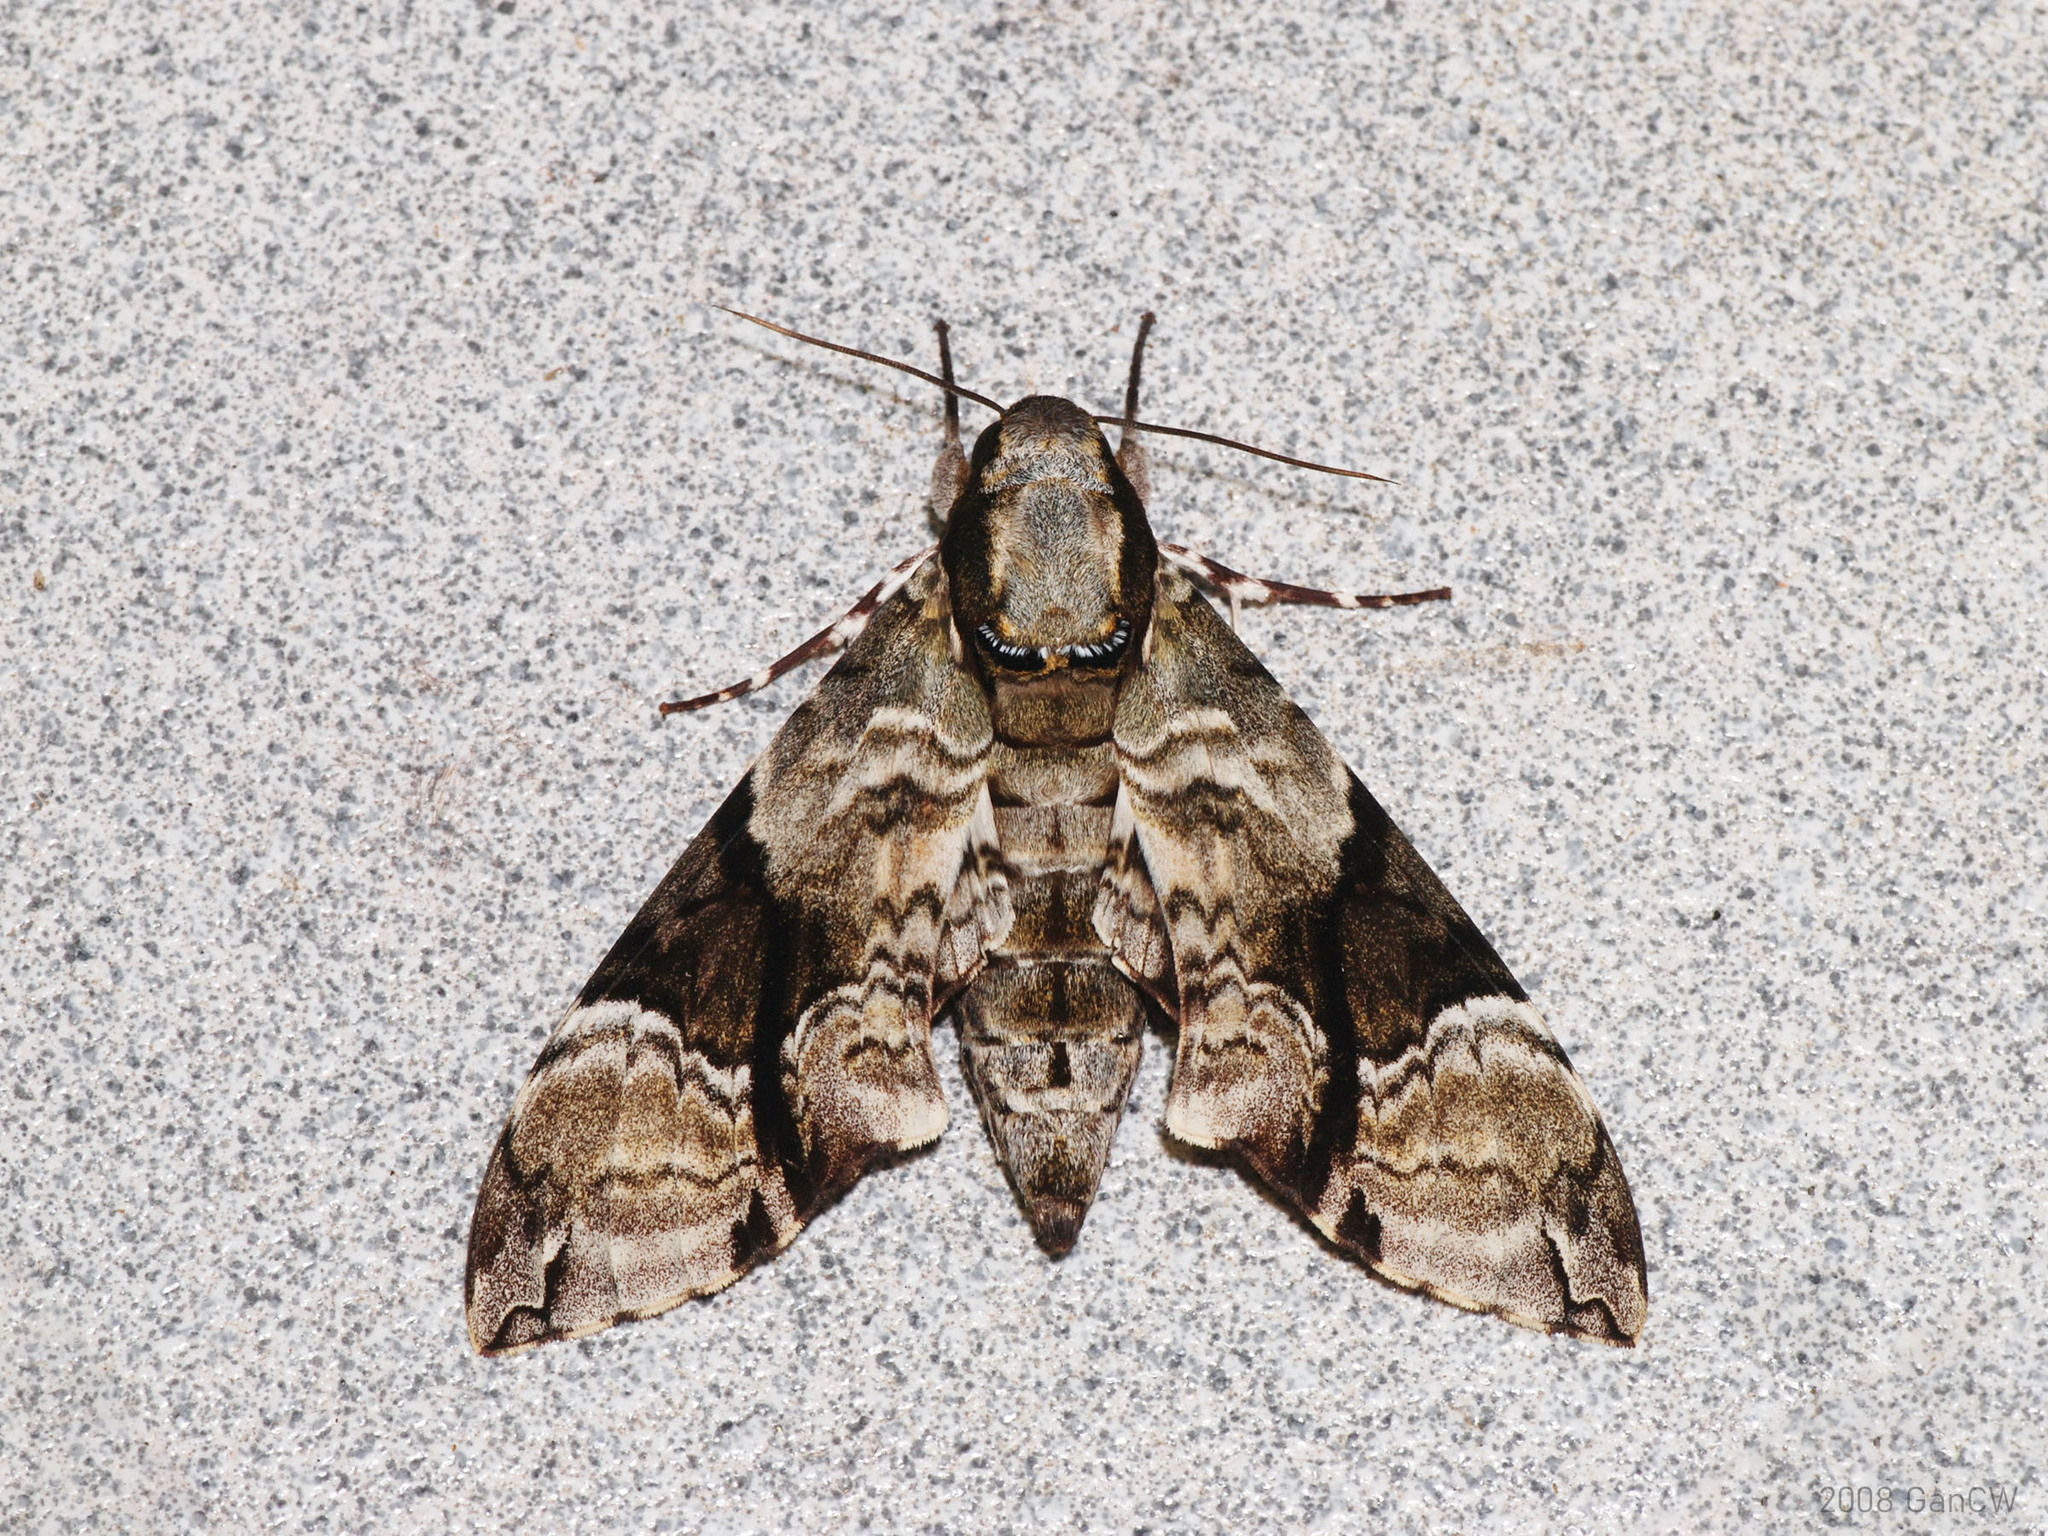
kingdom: Animalia
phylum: Arthropoda
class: Insecta
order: Lepidoptera
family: Sphingidae
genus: Megacorma
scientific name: Megacorma obliqua
